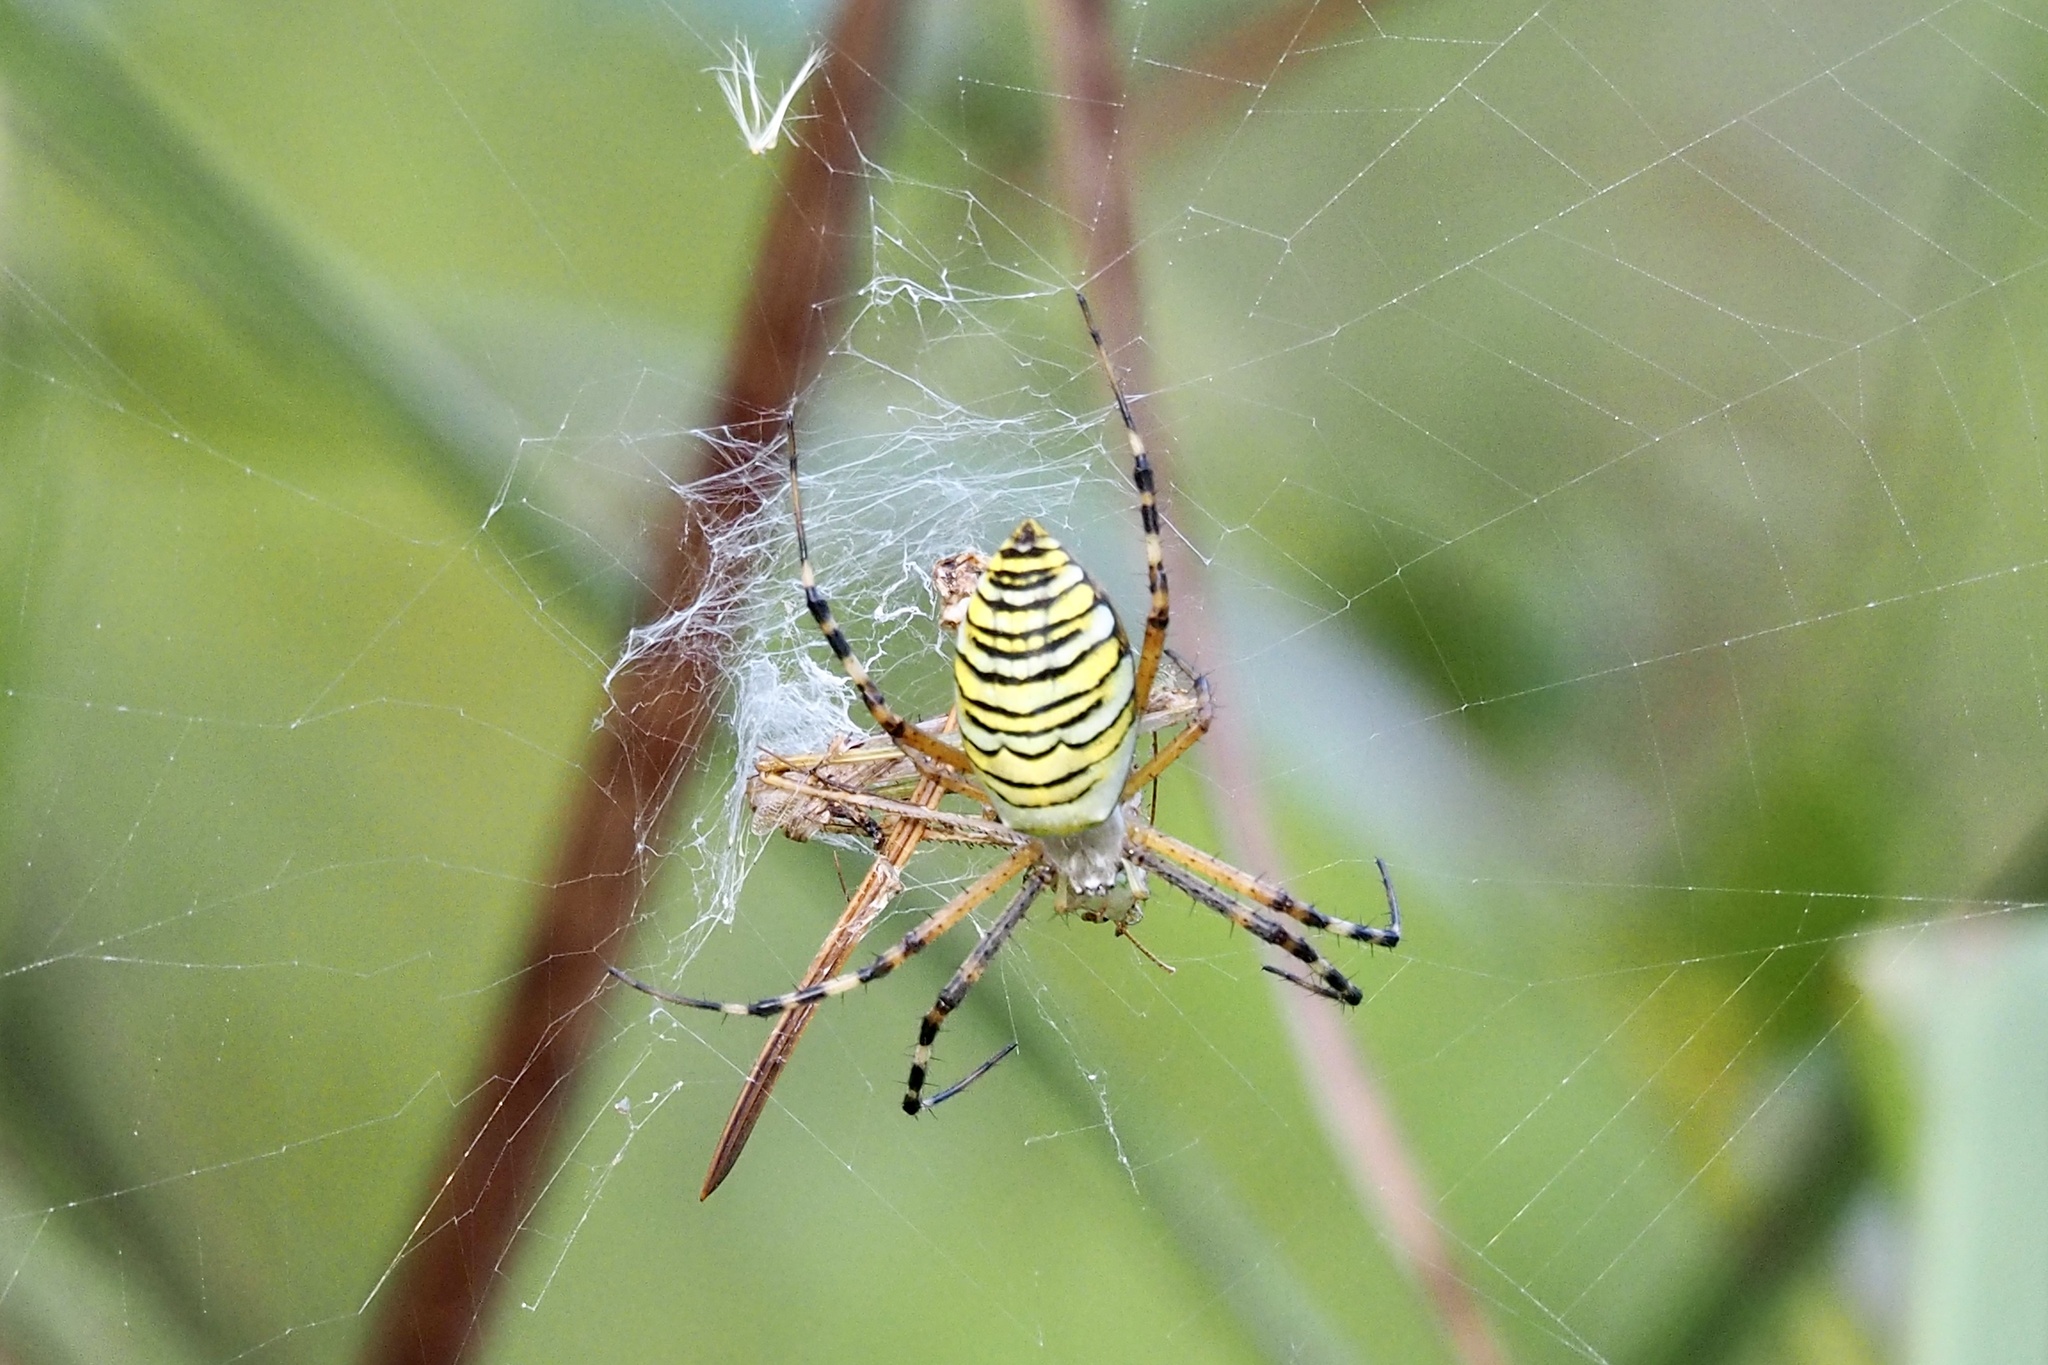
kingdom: Animalia
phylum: Arthropoda
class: Arachnida
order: Araneae
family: Araneidae
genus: Argiope
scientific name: Argiope bruennichi
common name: Wasp spider
